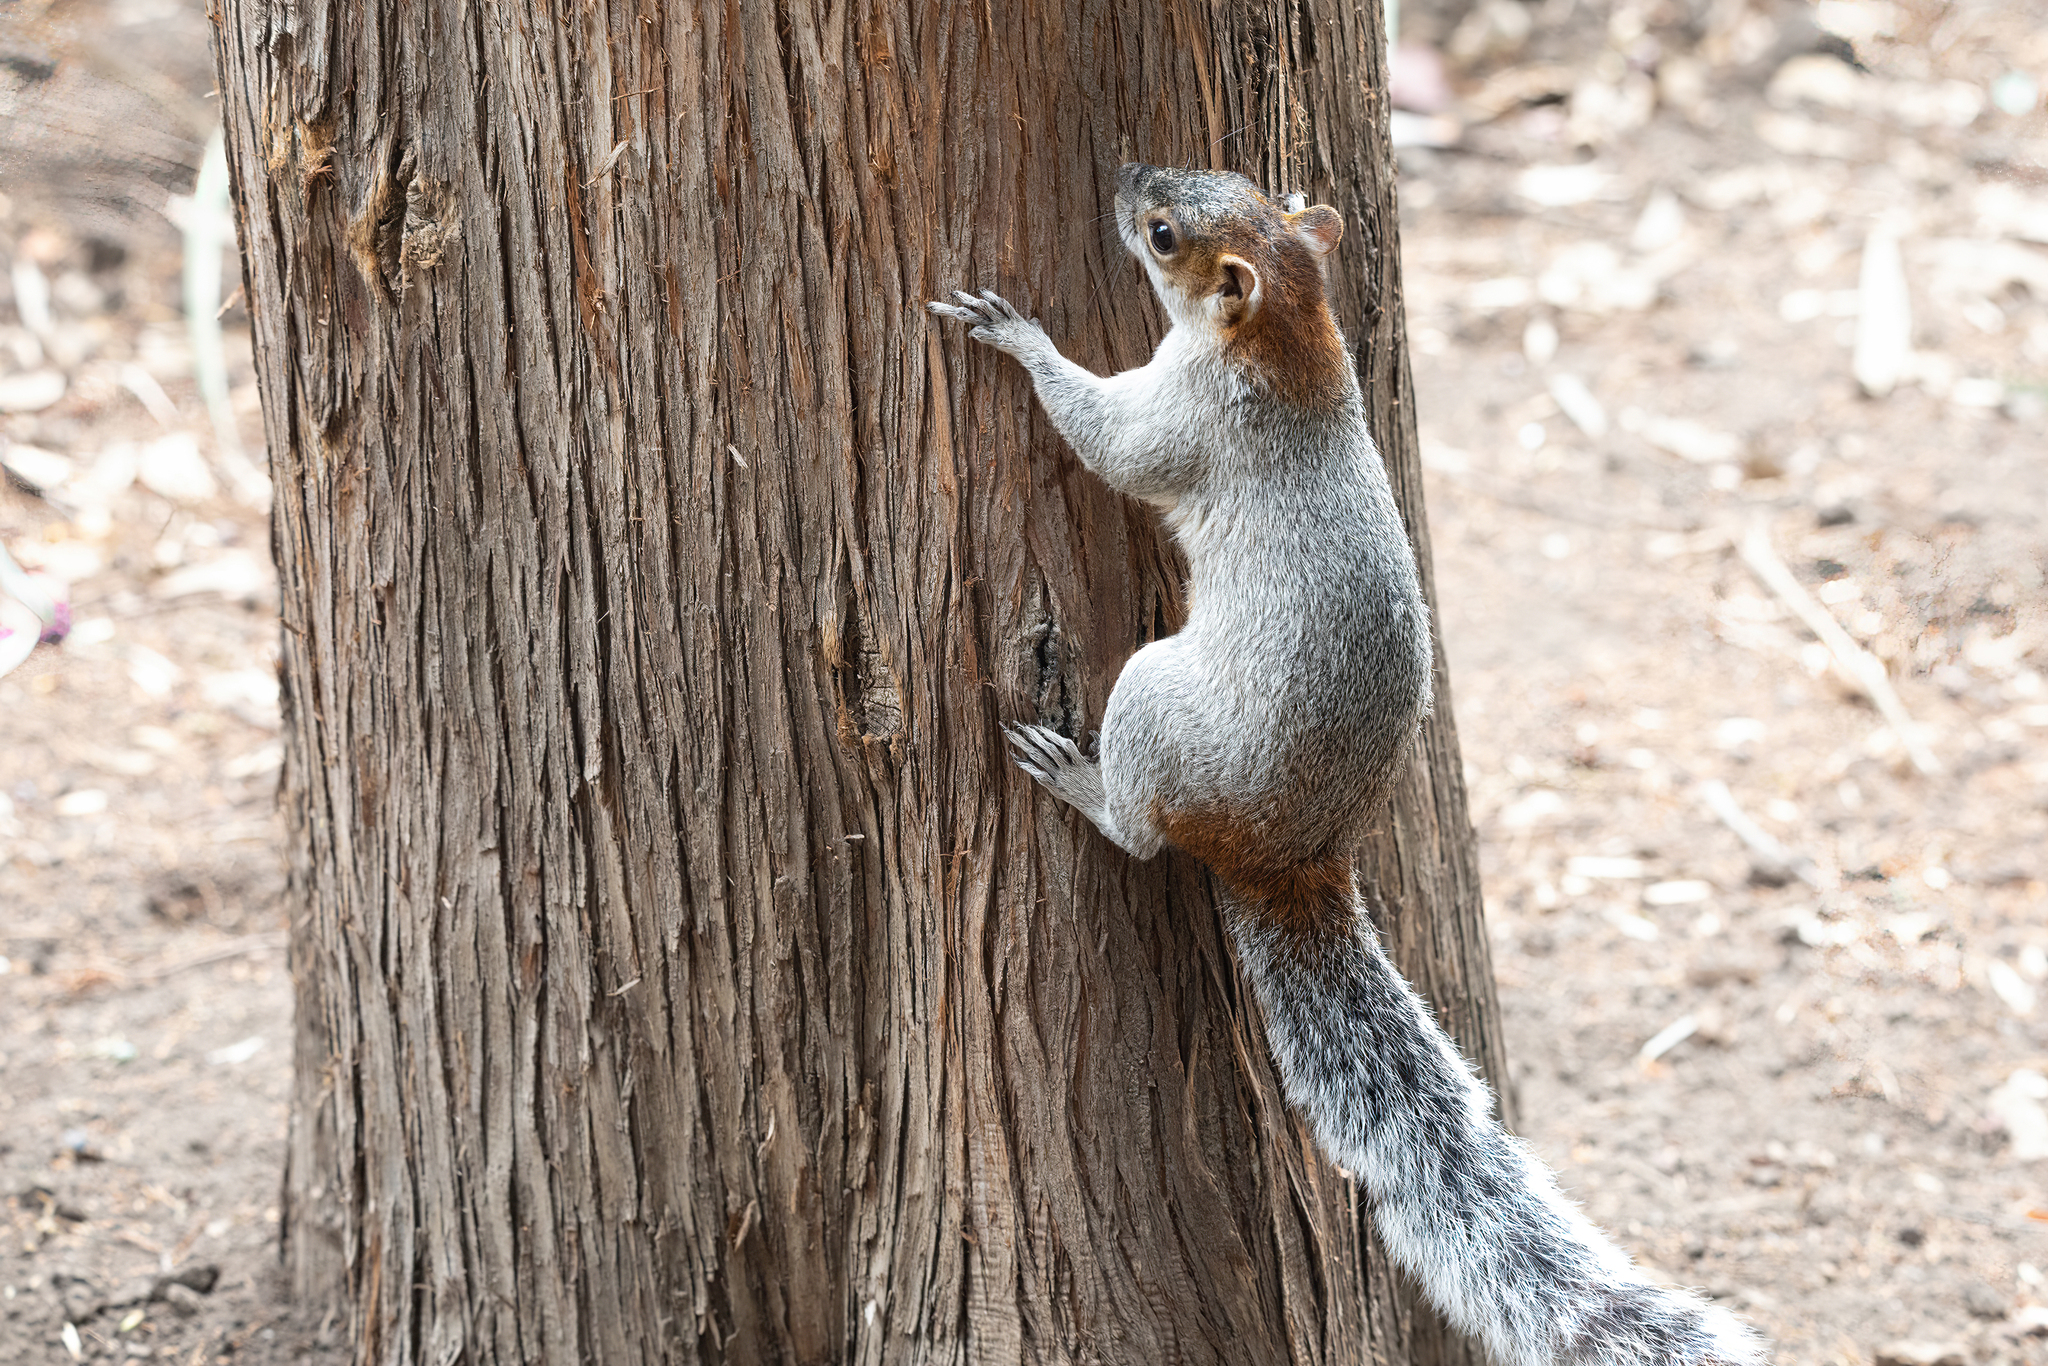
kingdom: Animalia
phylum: Chordata
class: Mammalia
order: Rodentia
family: Sciuridae
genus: Sciurus
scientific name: Sciurus aureogaster
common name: Red-bellied squirrel
